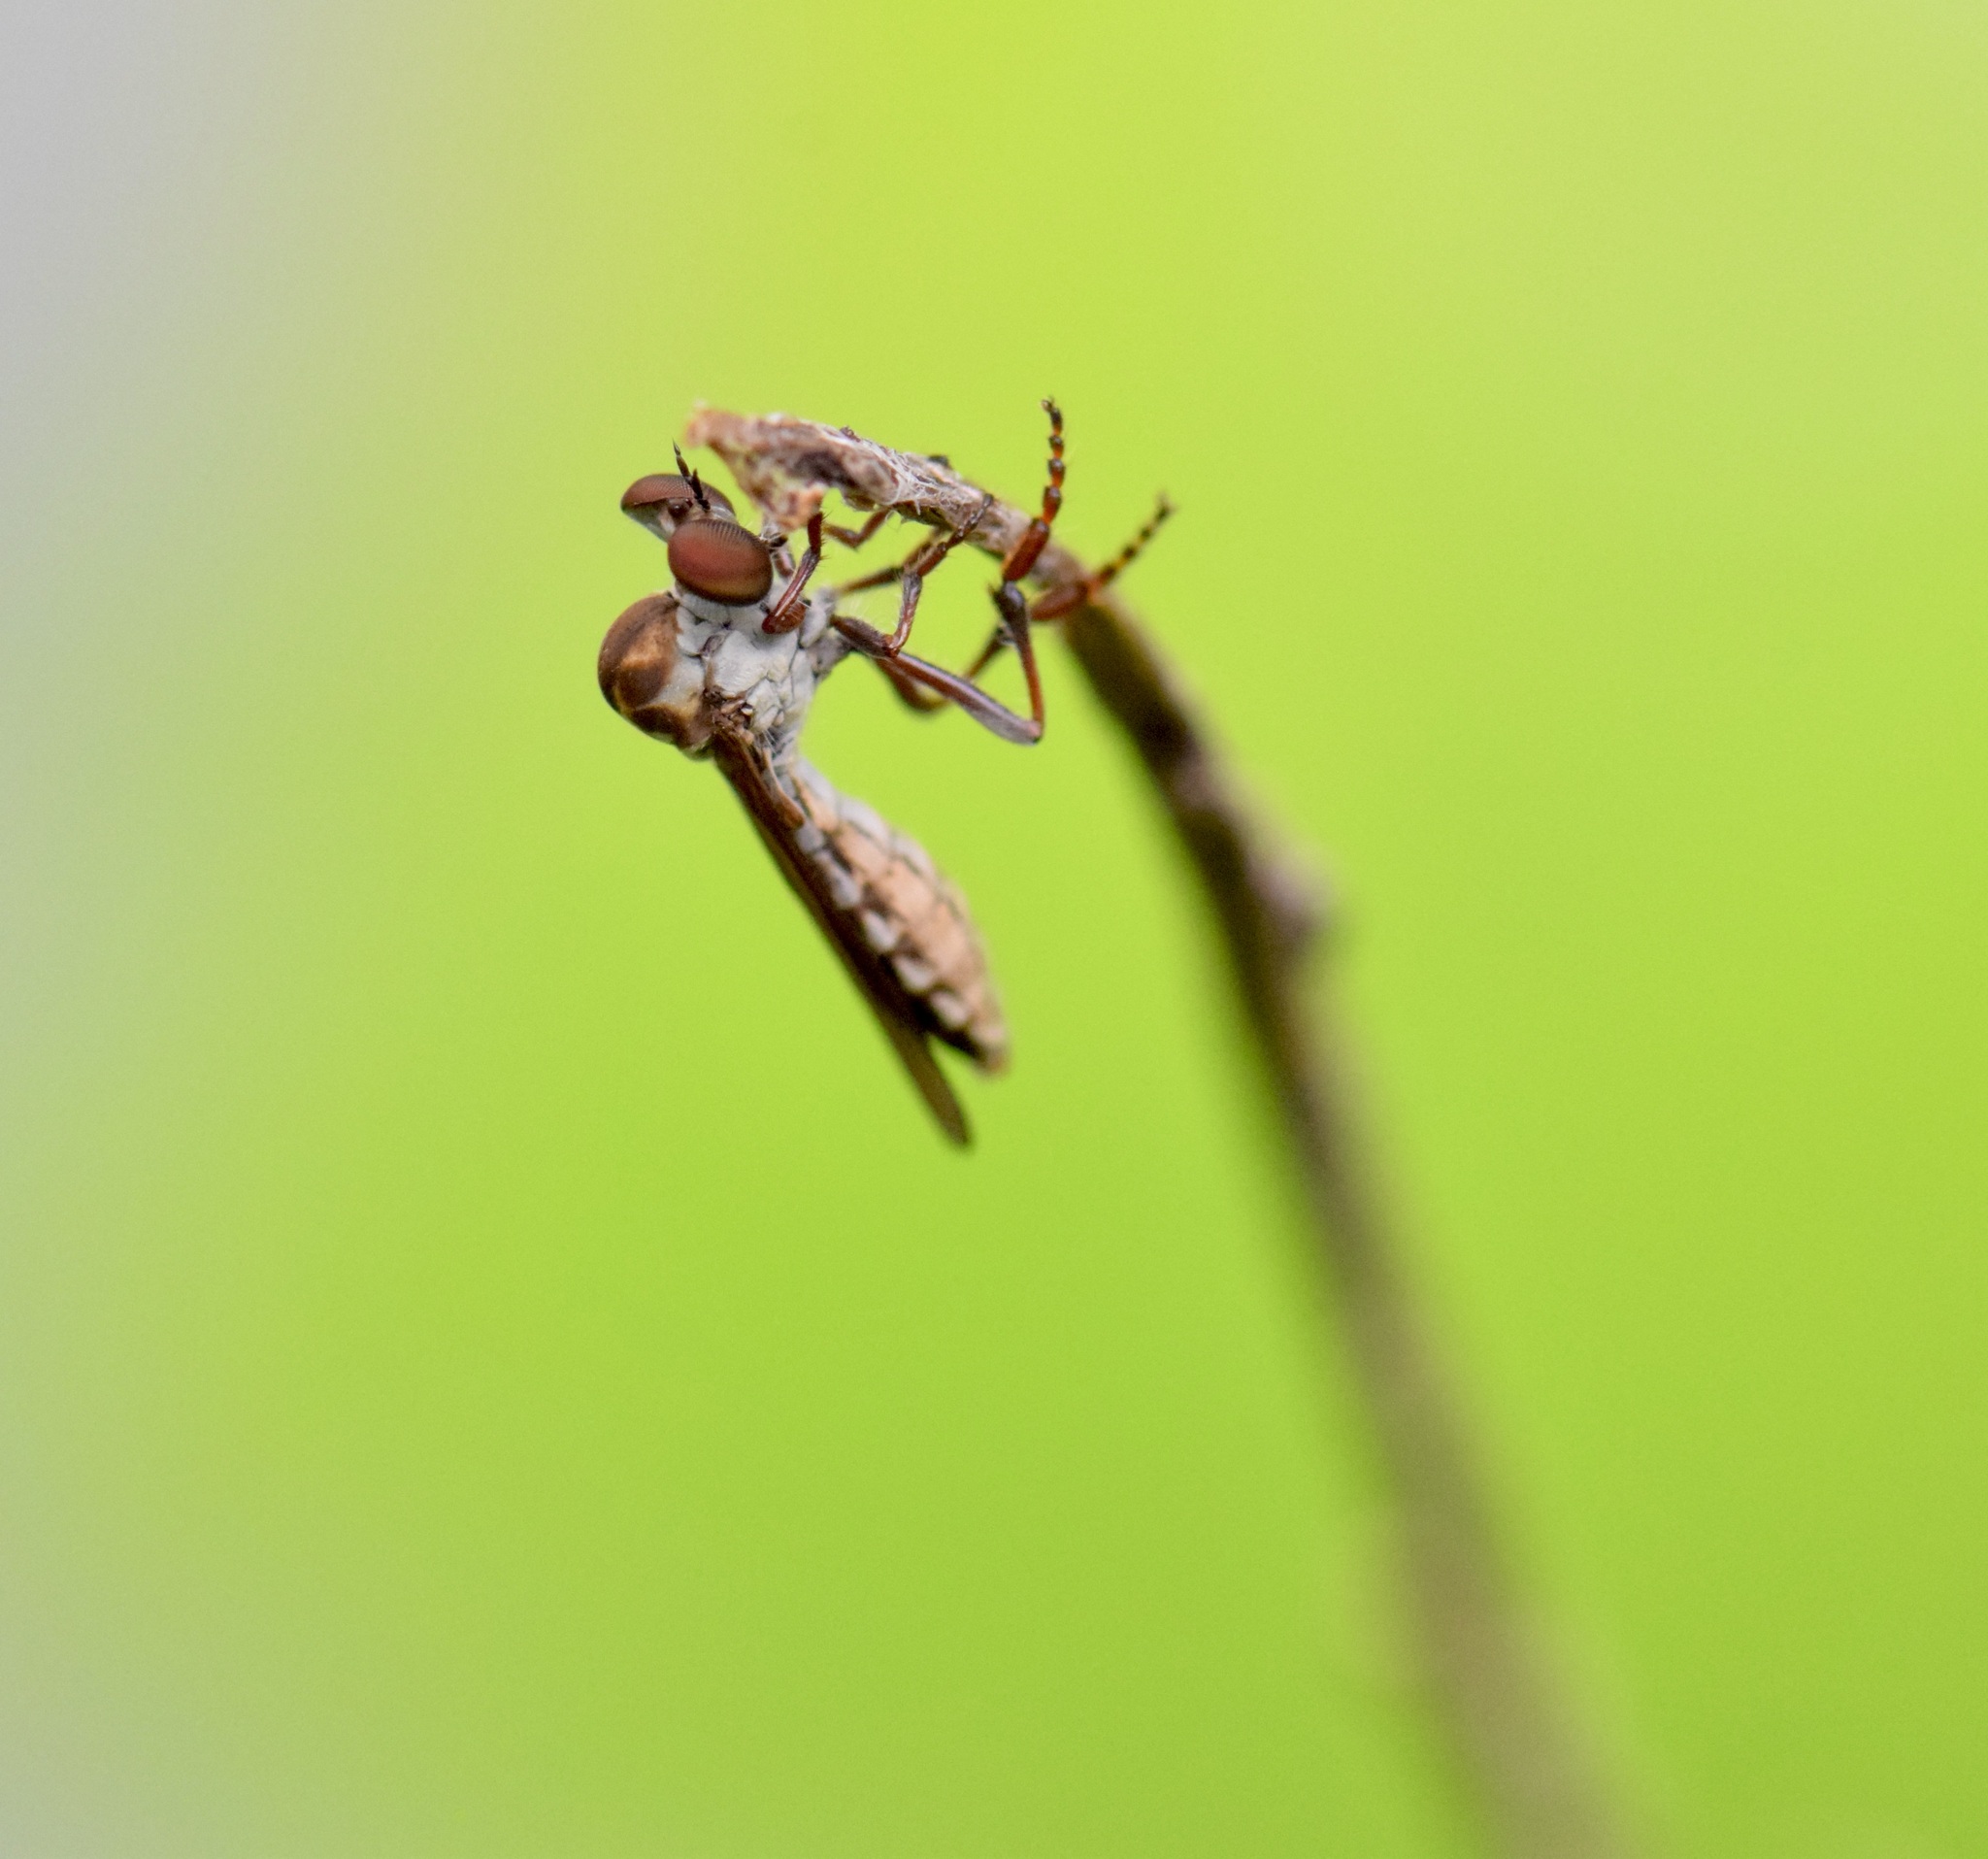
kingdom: Animalia
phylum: Arthropoda
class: Insecta
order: Diptera
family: Asilidae
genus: Holcocephala
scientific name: Holcocephala calva
